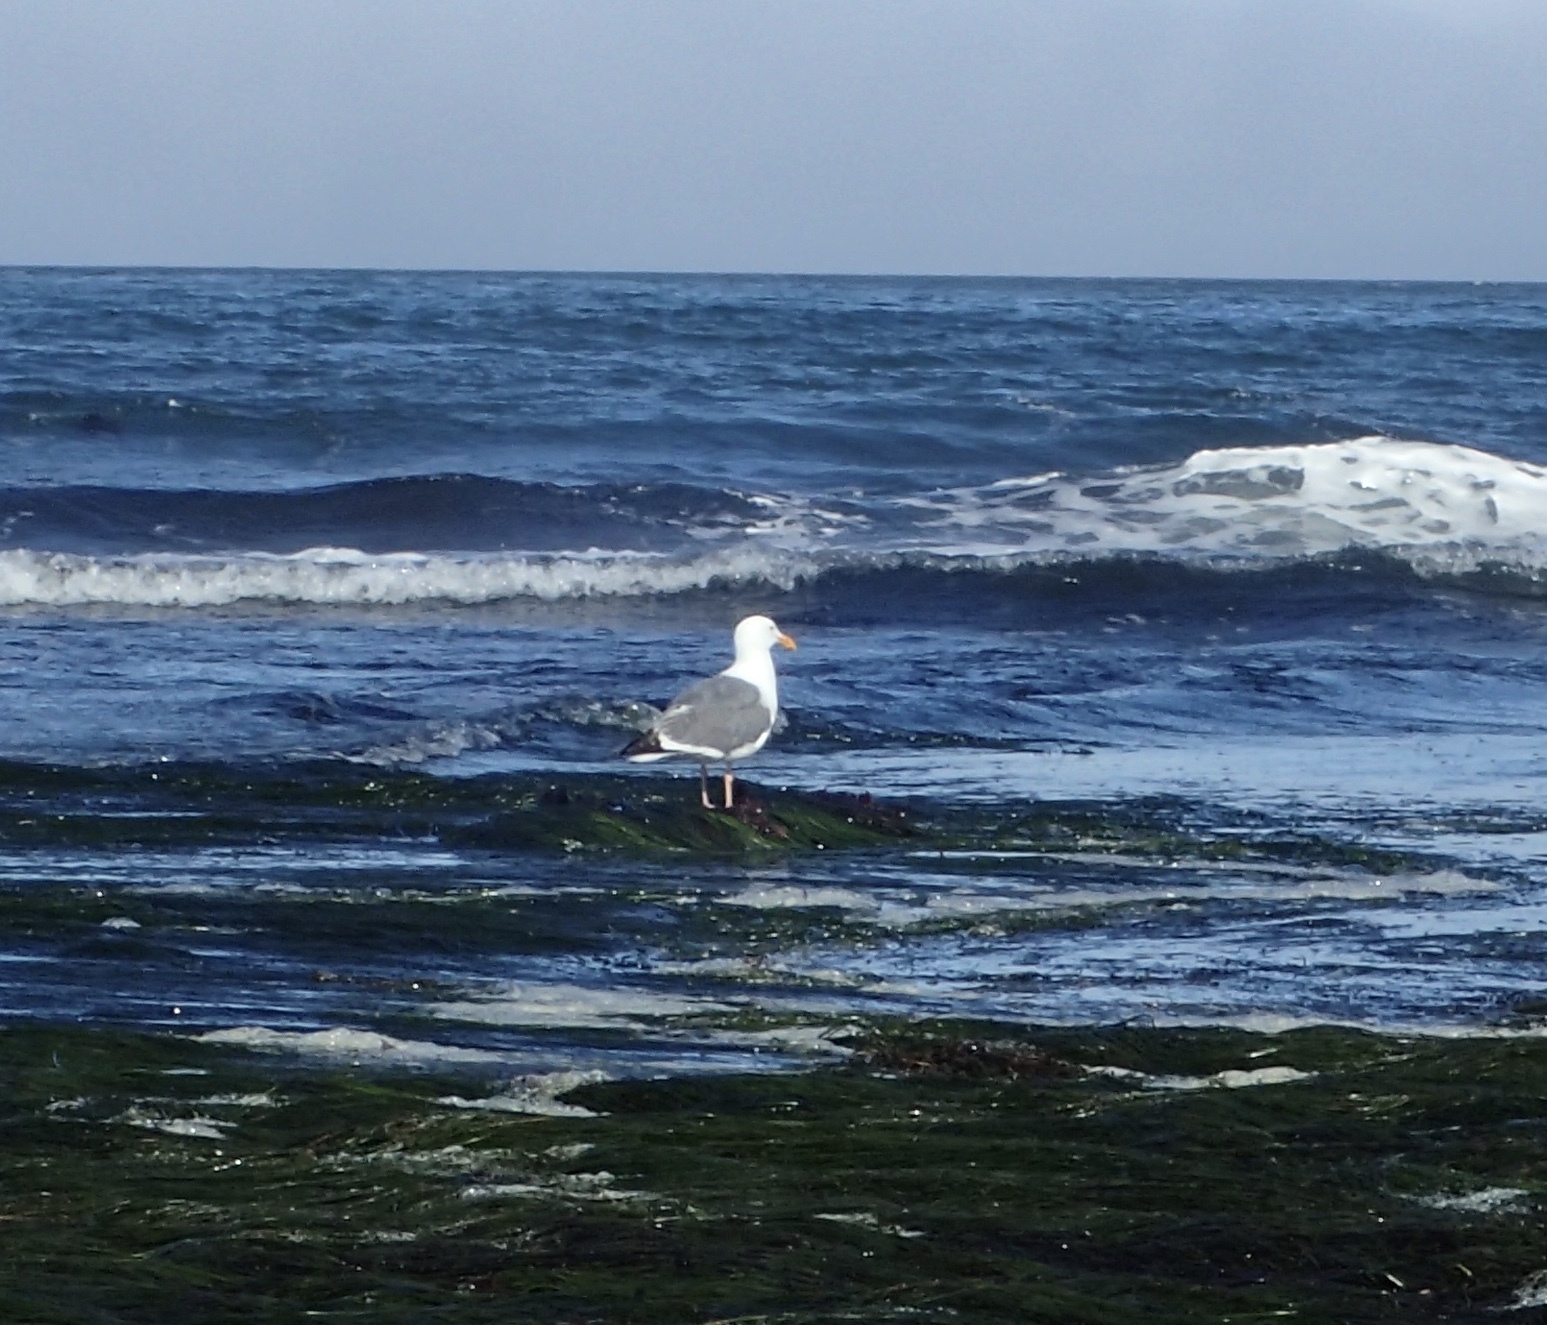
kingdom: Animalia
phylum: Chordata
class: Aves
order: Charadriiformes
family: Laridae
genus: Larus
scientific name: Larus occidentalis
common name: Western gull
